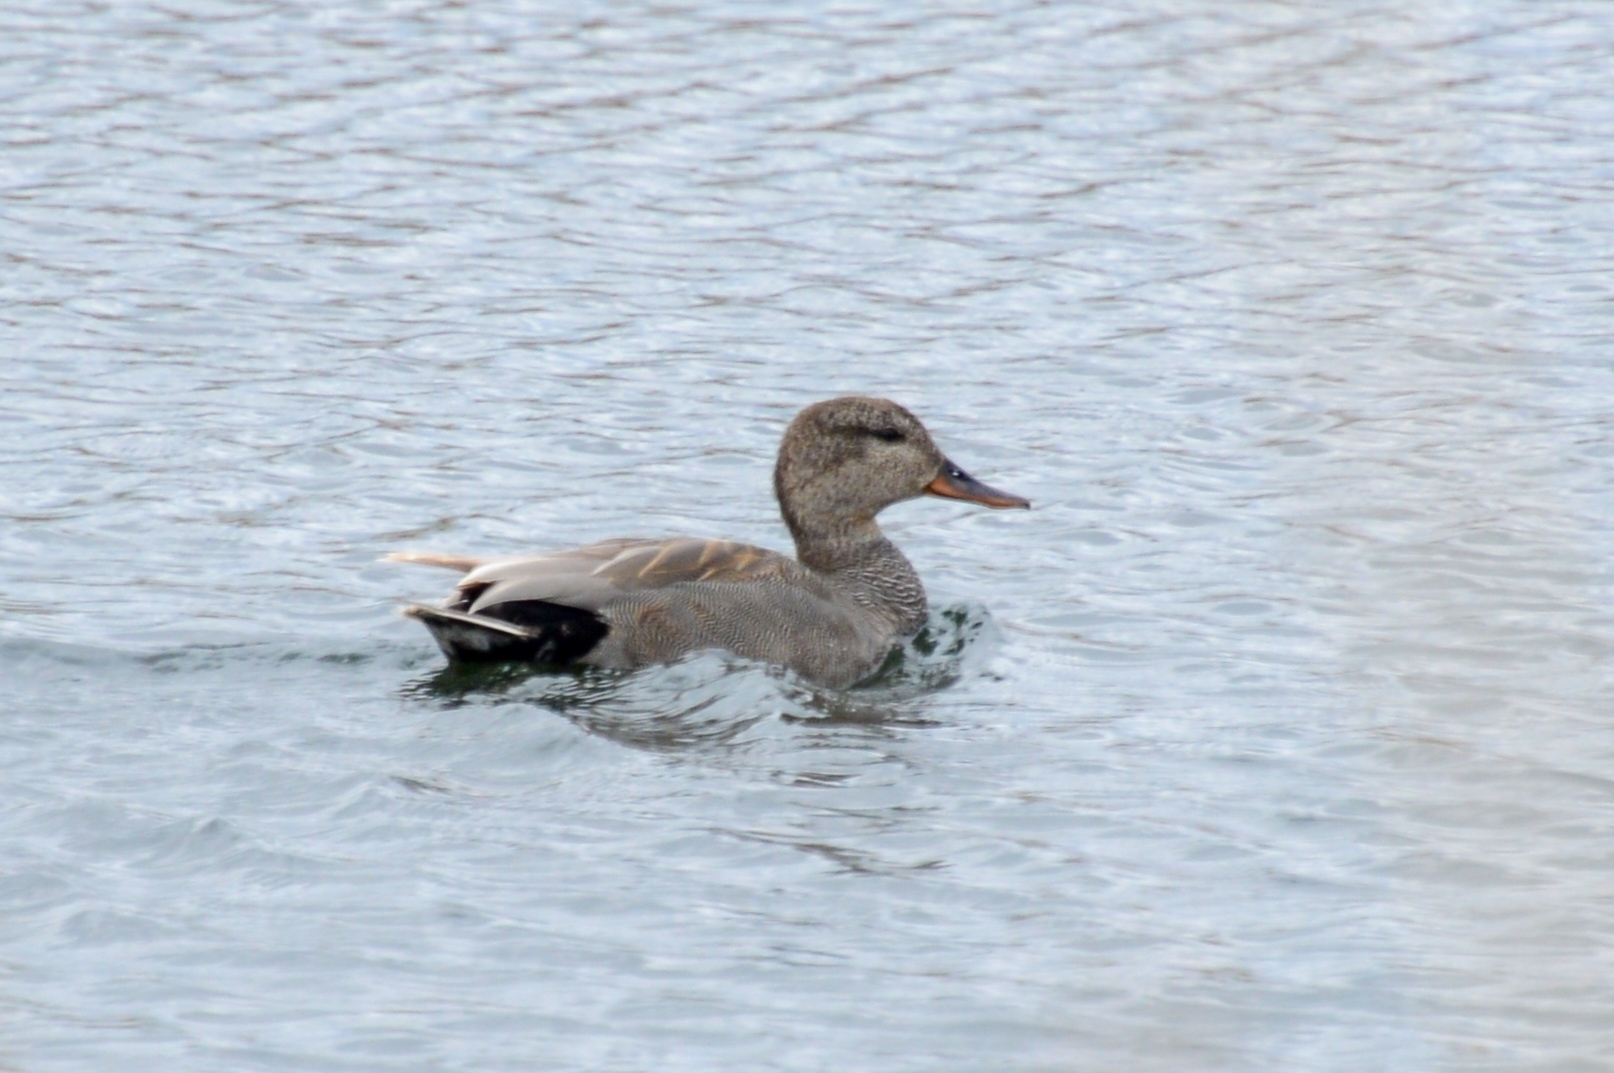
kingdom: Animalia
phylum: Chordata
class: Aves
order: Anseriformes
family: Anatidae
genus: Mareca
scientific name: Mareca strepera
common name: Gadwall
